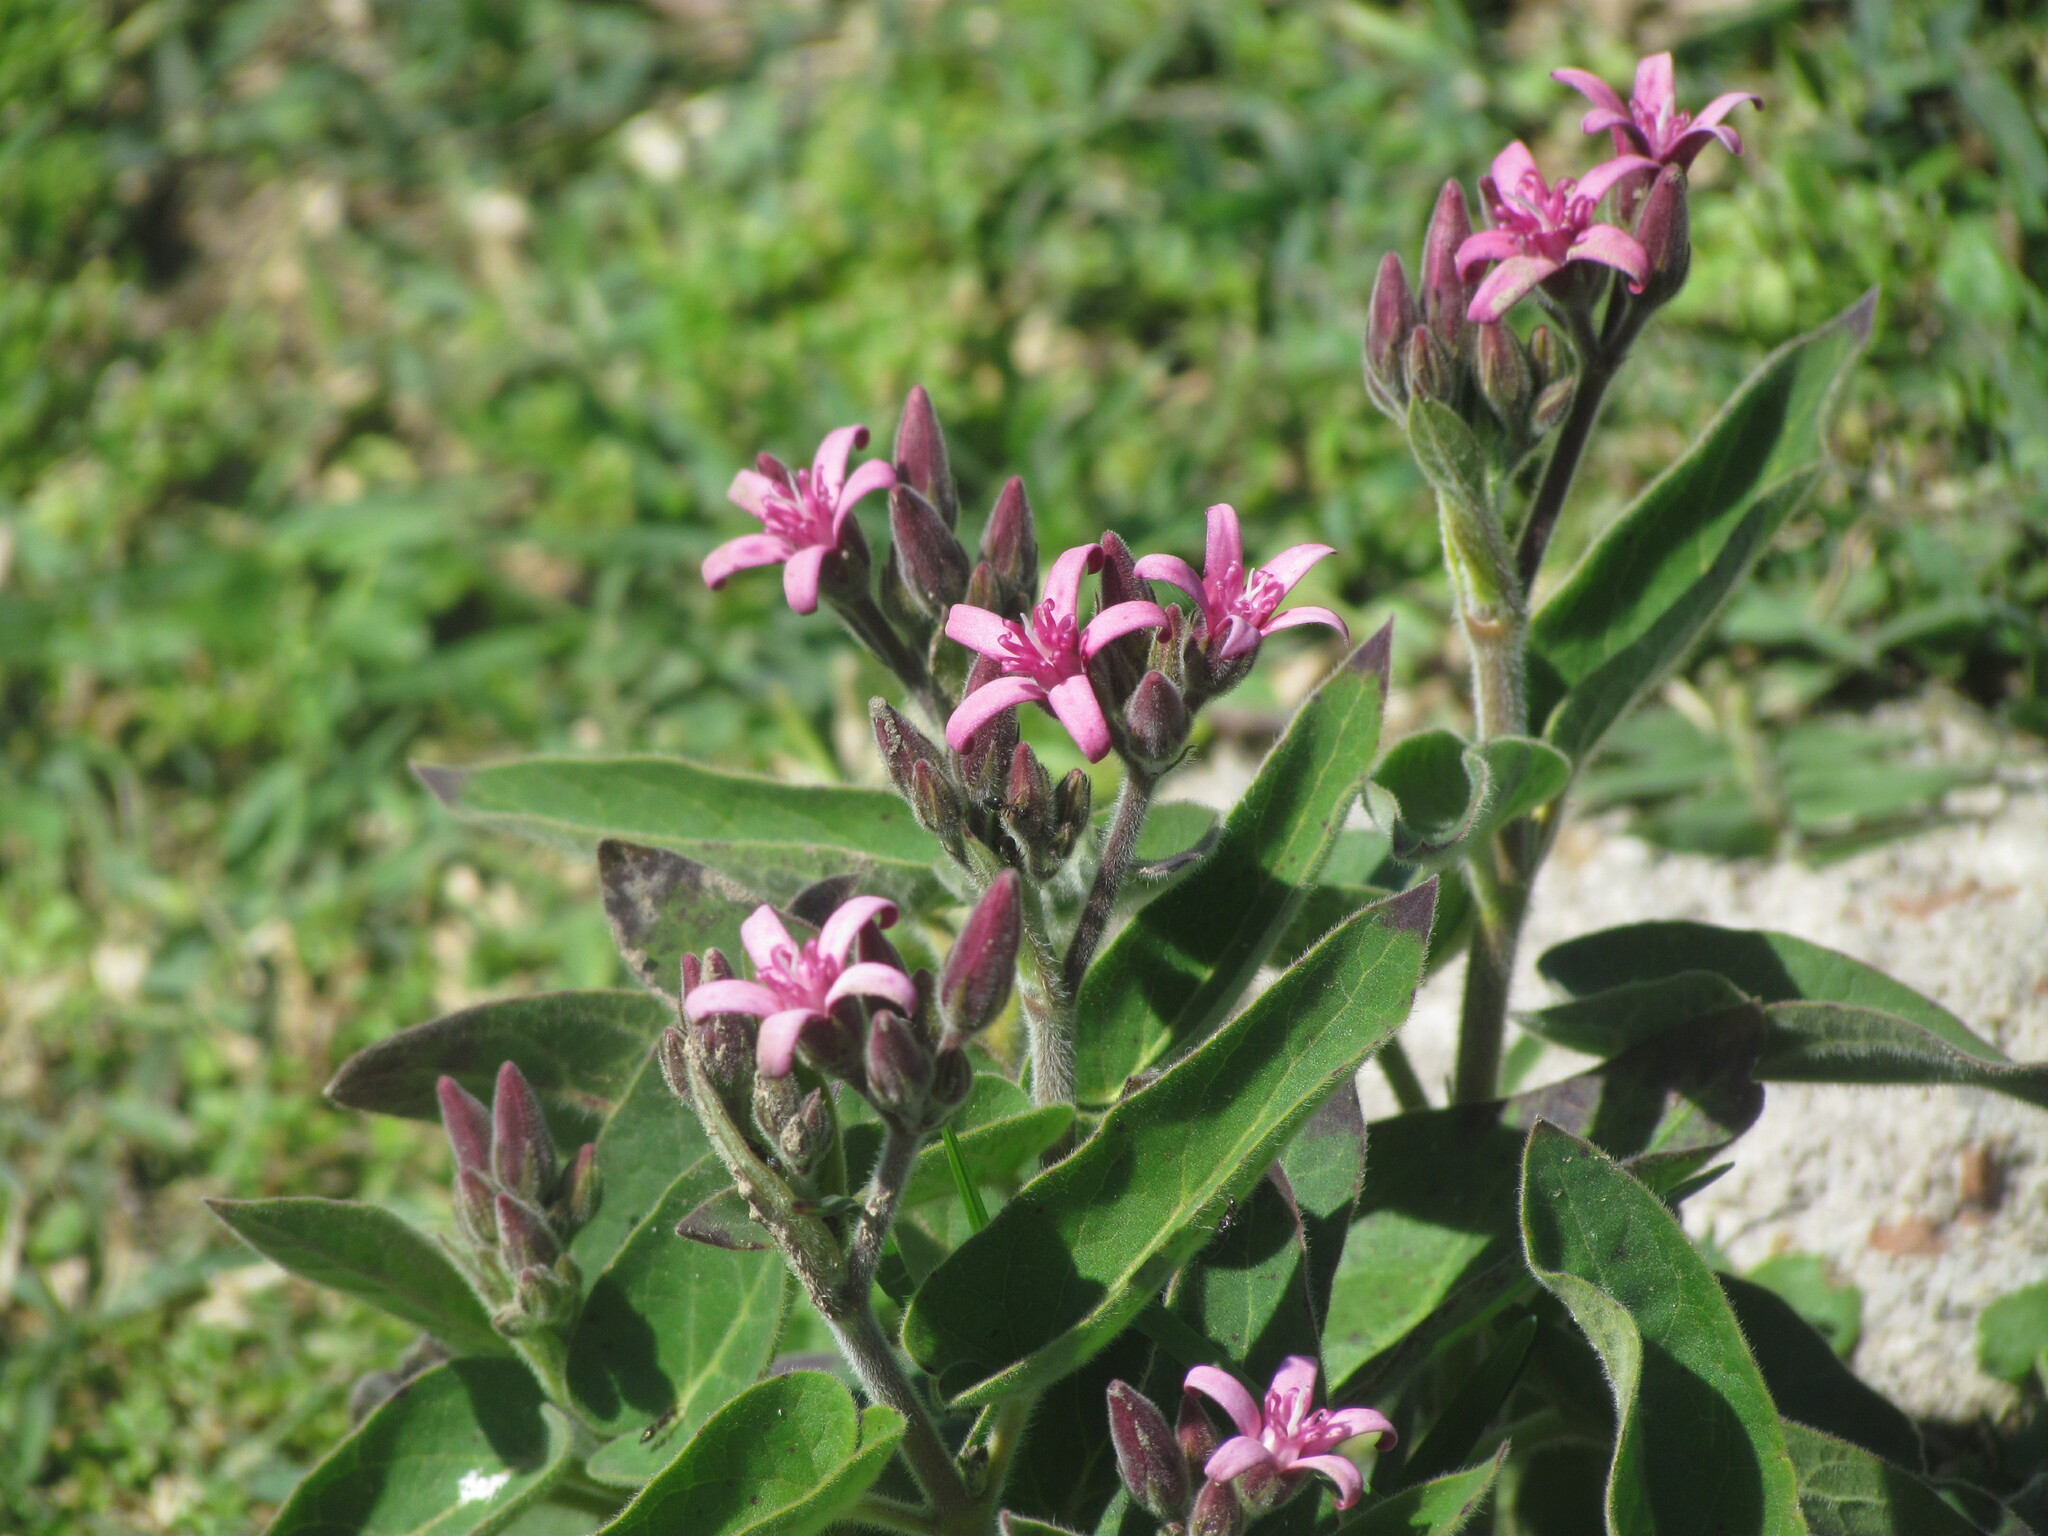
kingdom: Plantae
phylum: Tracheophyta
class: Magnoliopsida
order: Gentianales
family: Apocynaceae
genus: Oxypetalum
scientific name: Oxypetalum solanoides
